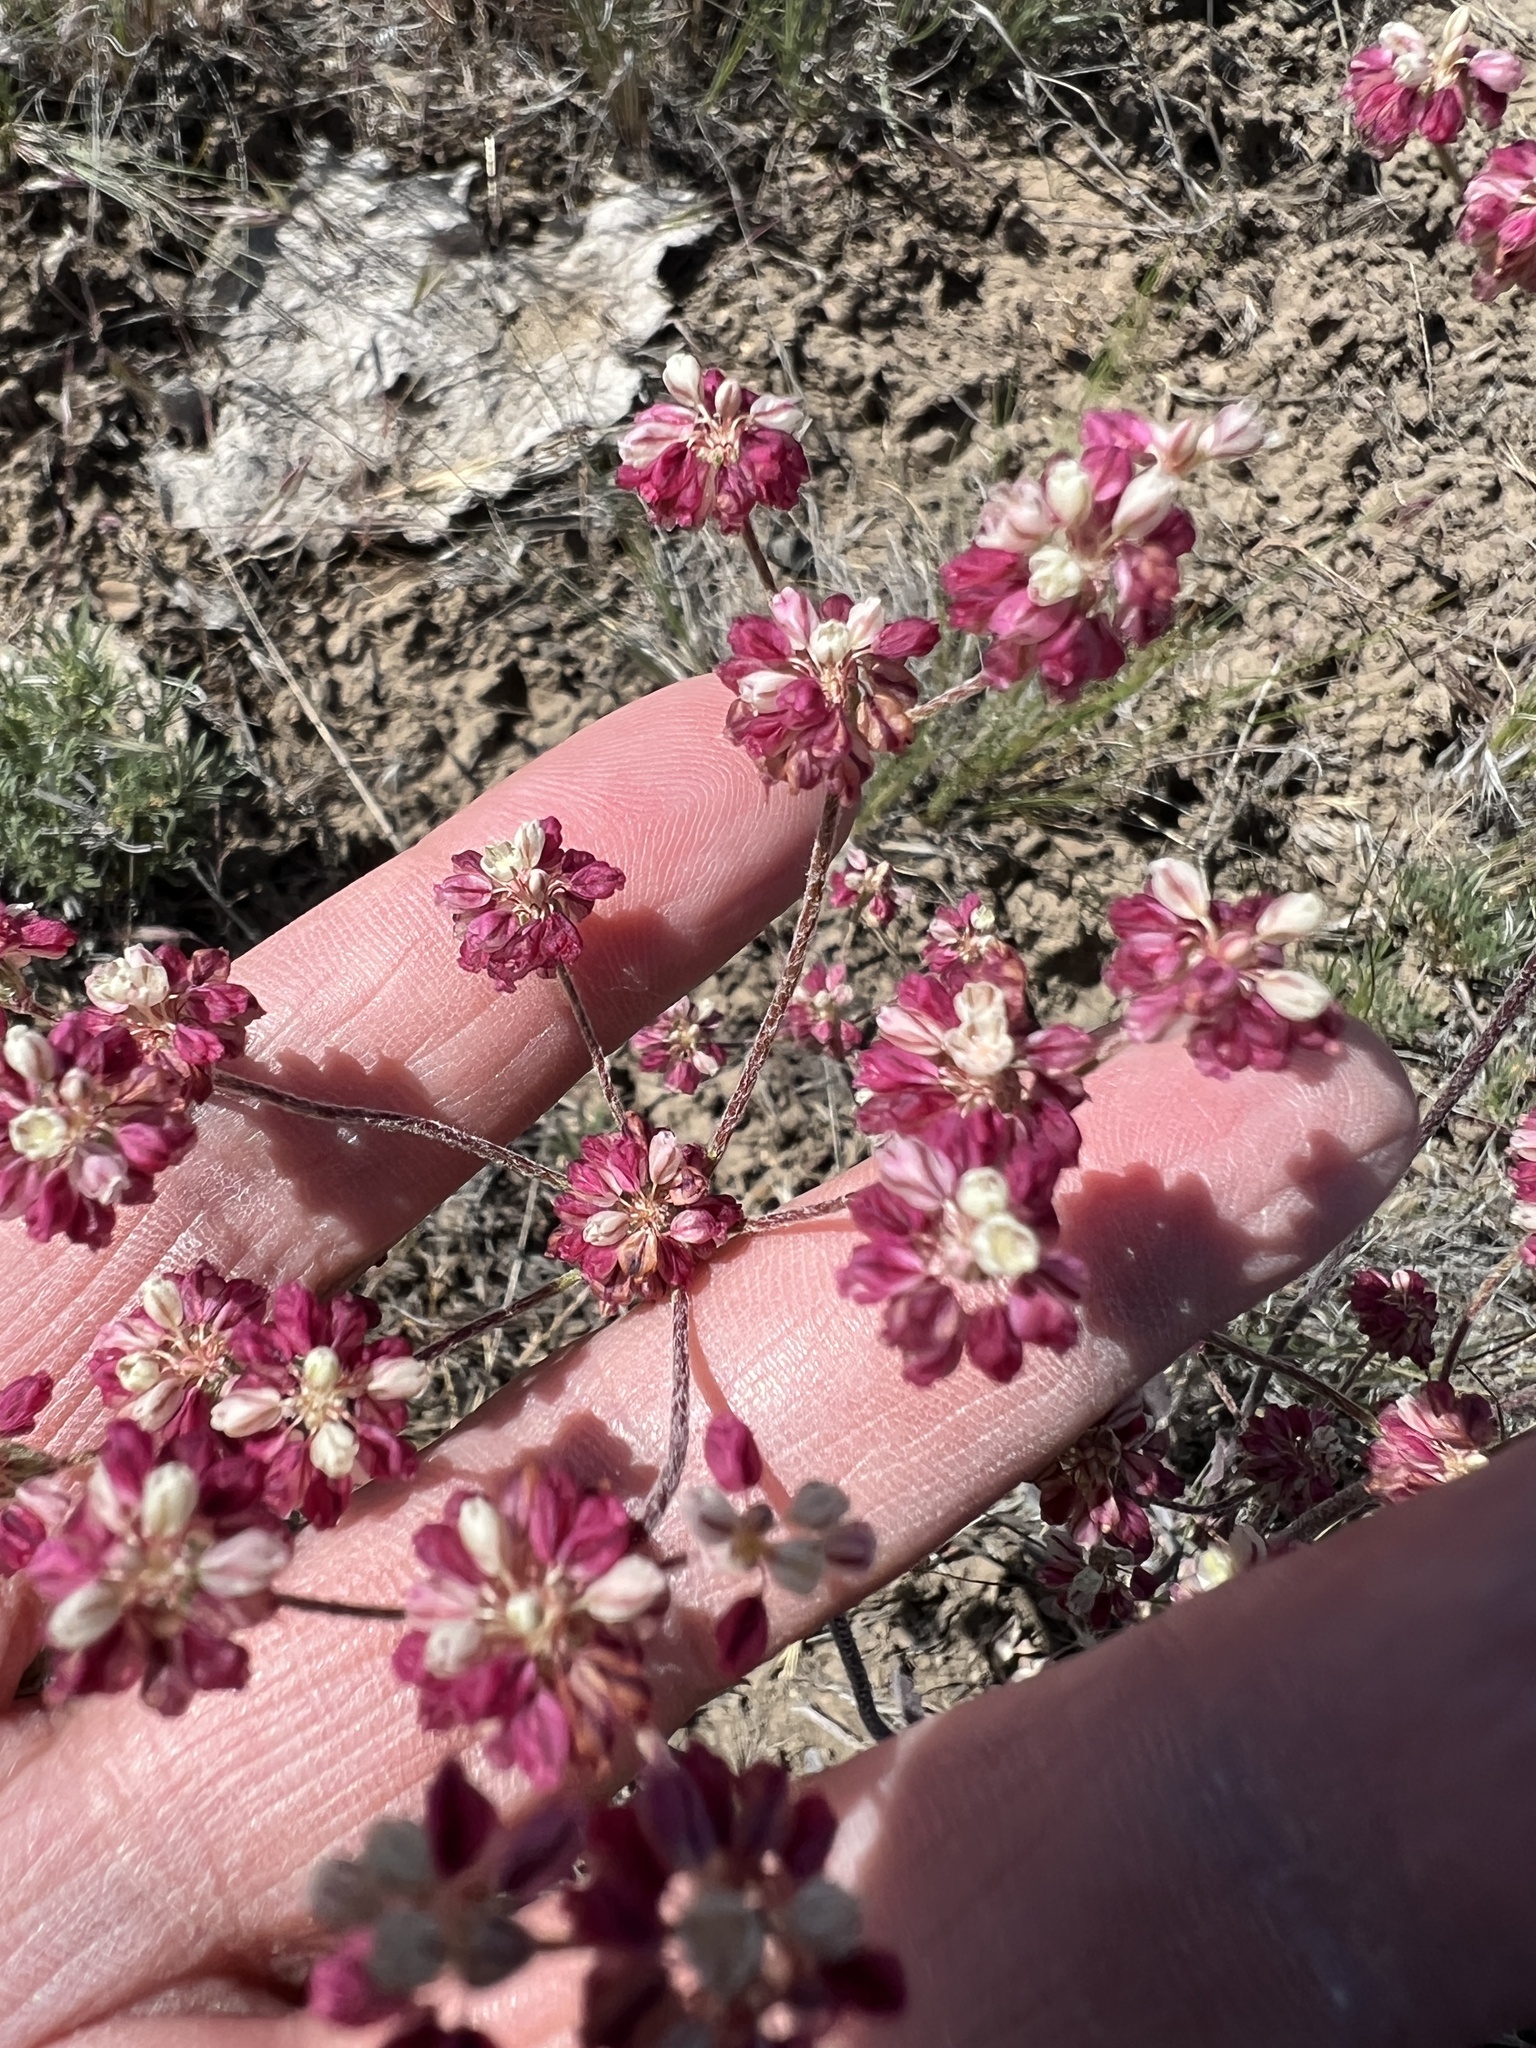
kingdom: Plantae
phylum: Tracheophyta
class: Magnoliopsida
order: Caryophyllales
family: Polygonaceae
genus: Eriogonum
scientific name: Eriogonum strictum
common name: Blue mountain buckwheat
